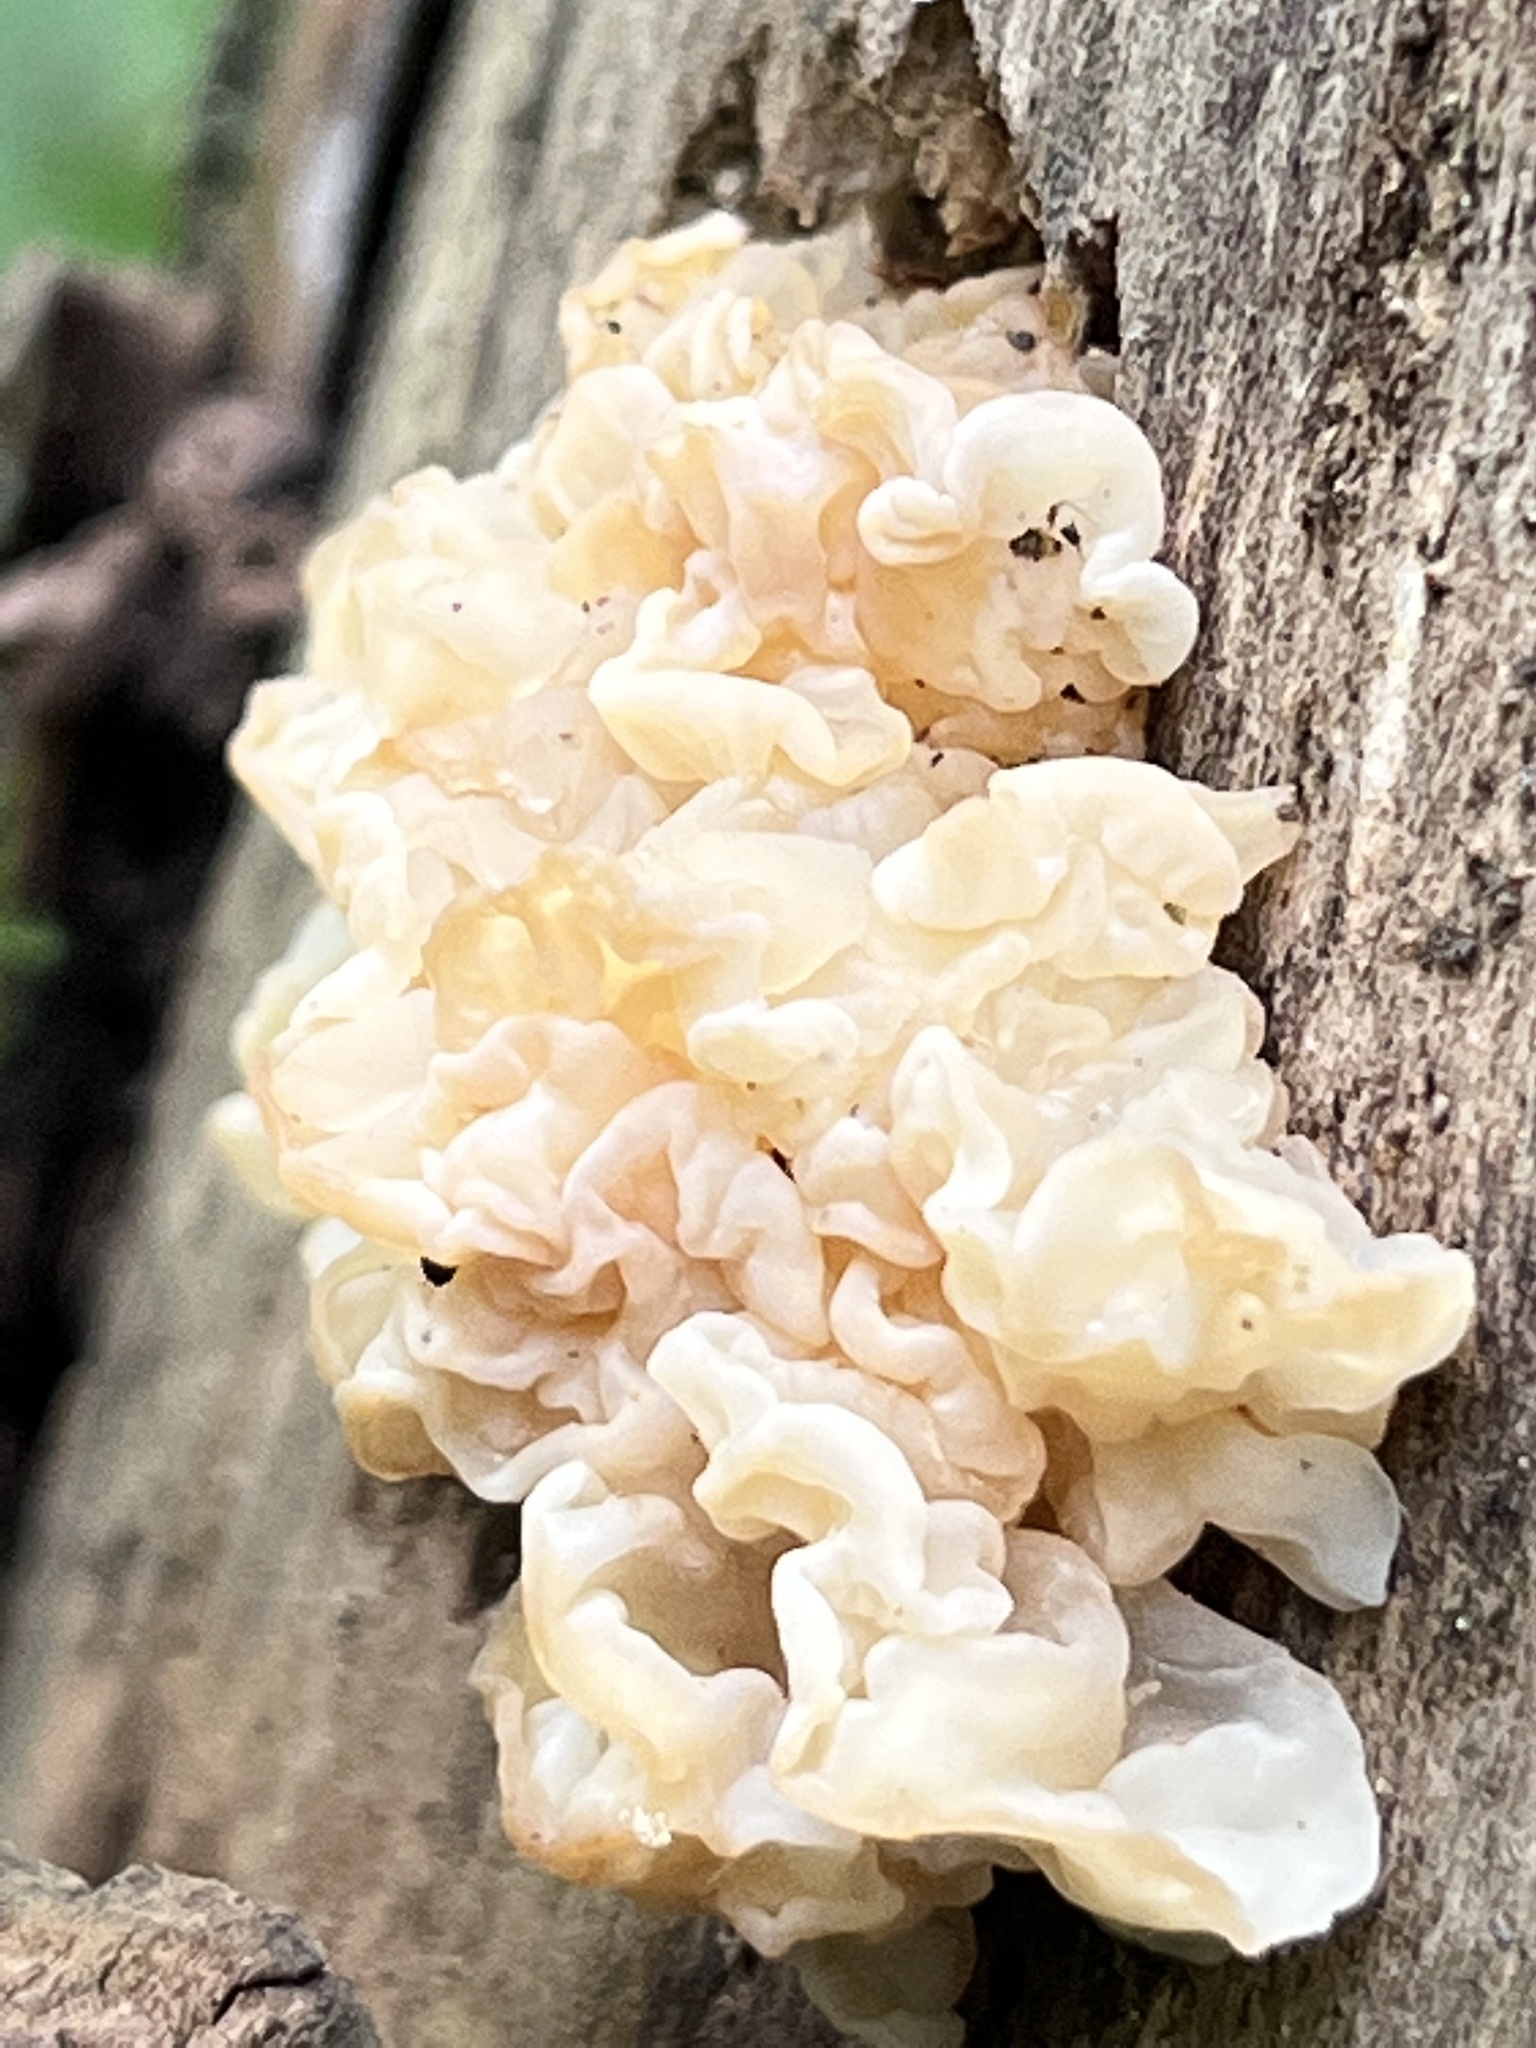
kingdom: Fungi
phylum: Basidiomycota
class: Agaricomycetes
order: Auriculariales
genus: Ductifera
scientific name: Ductifera pululahuana
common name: White jelly fungus
